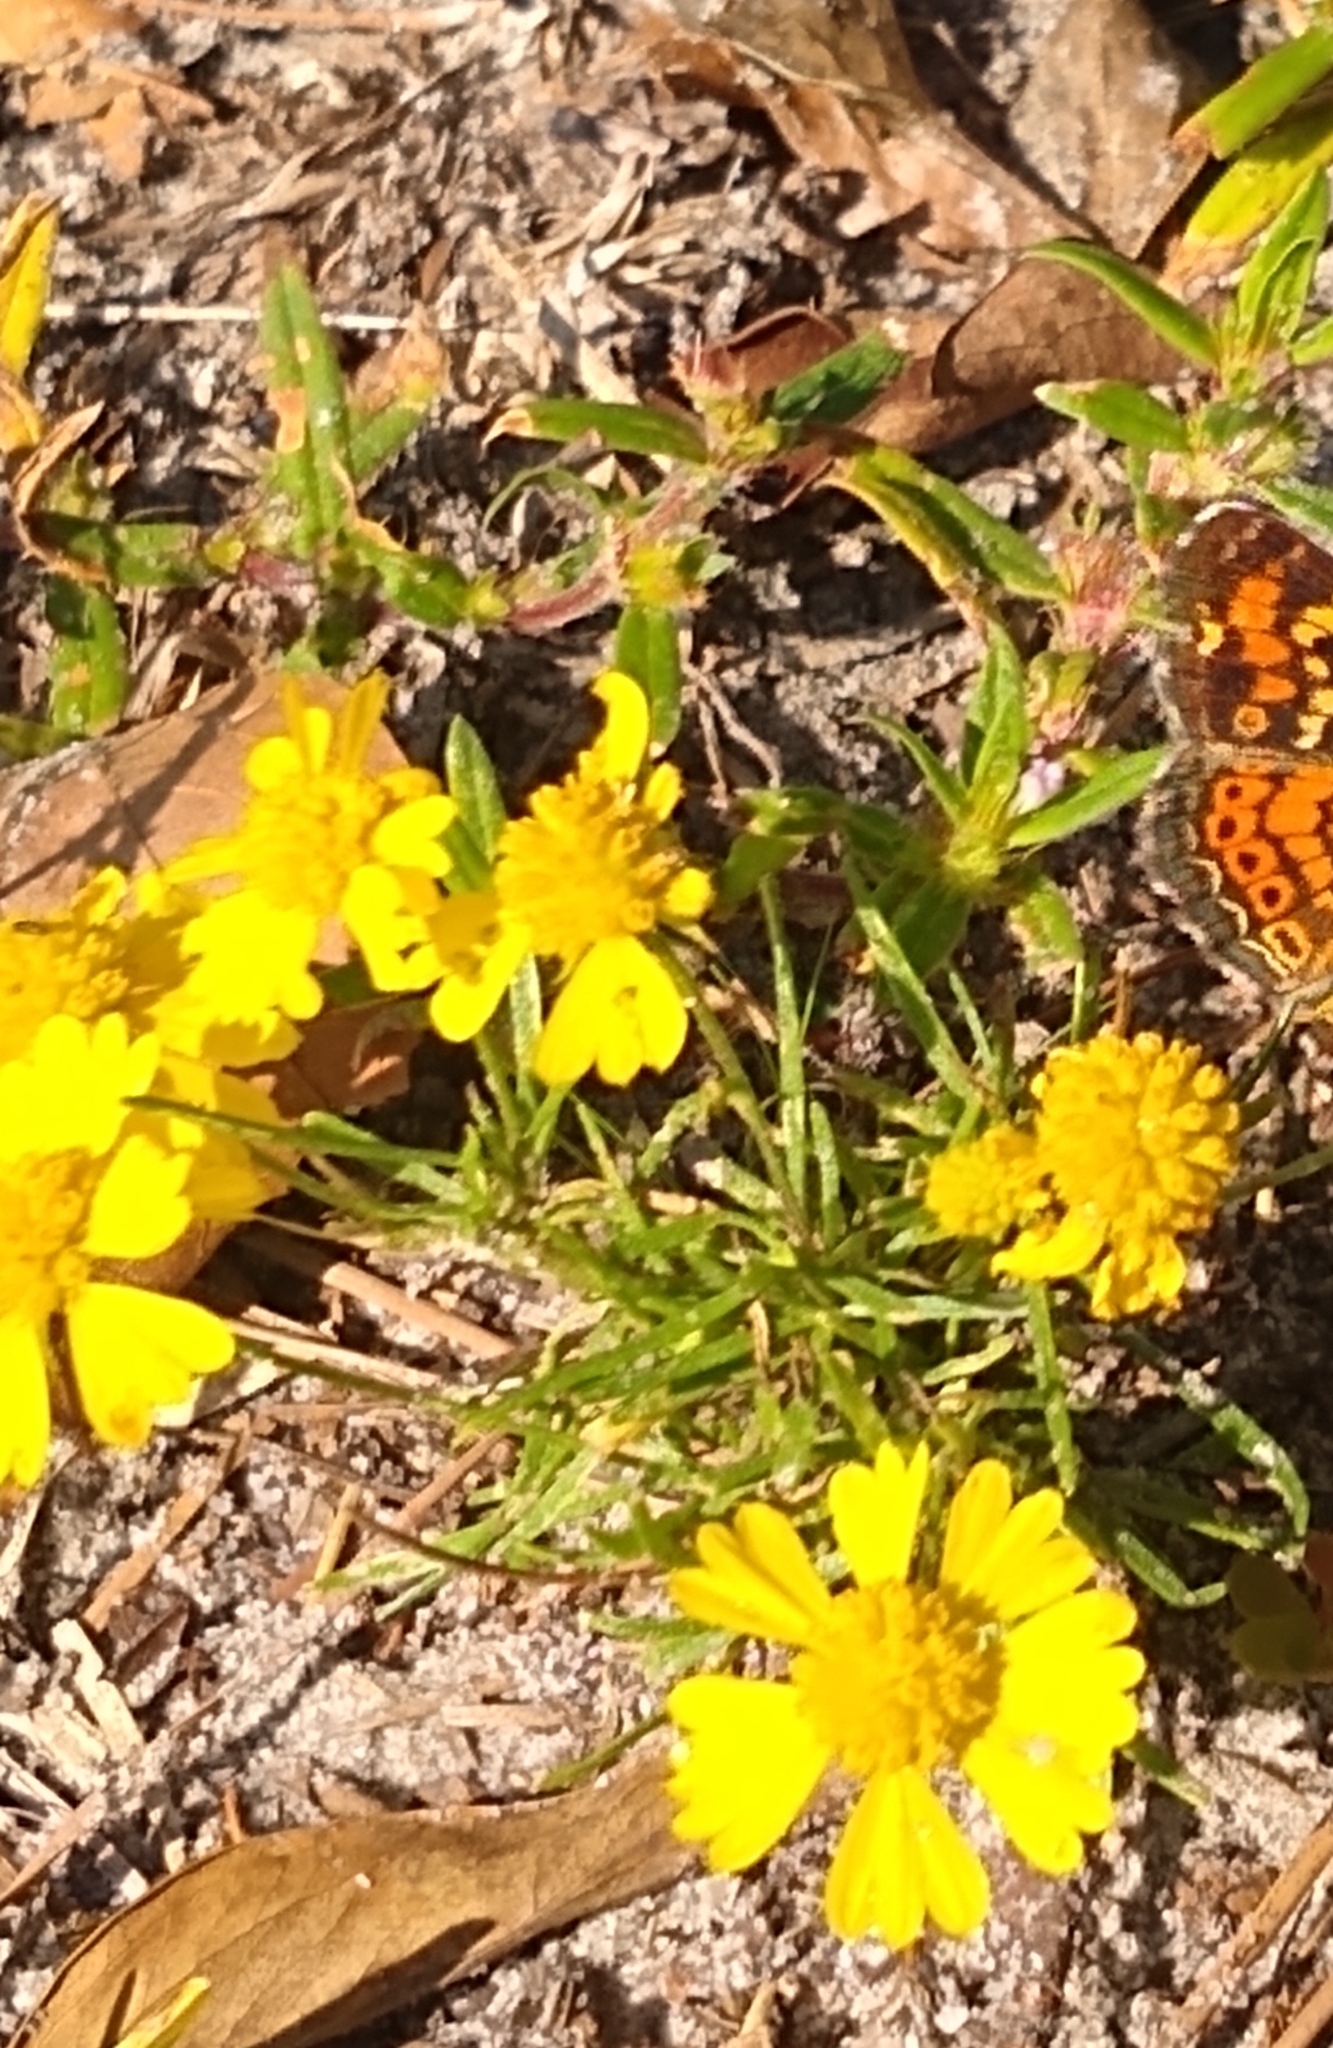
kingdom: Plantae
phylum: Tracheophyta
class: Magnoliopsida
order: Asterales
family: Asteraceae
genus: Helenium
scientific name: Helenium amarum
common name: Bitter sneezeweed
